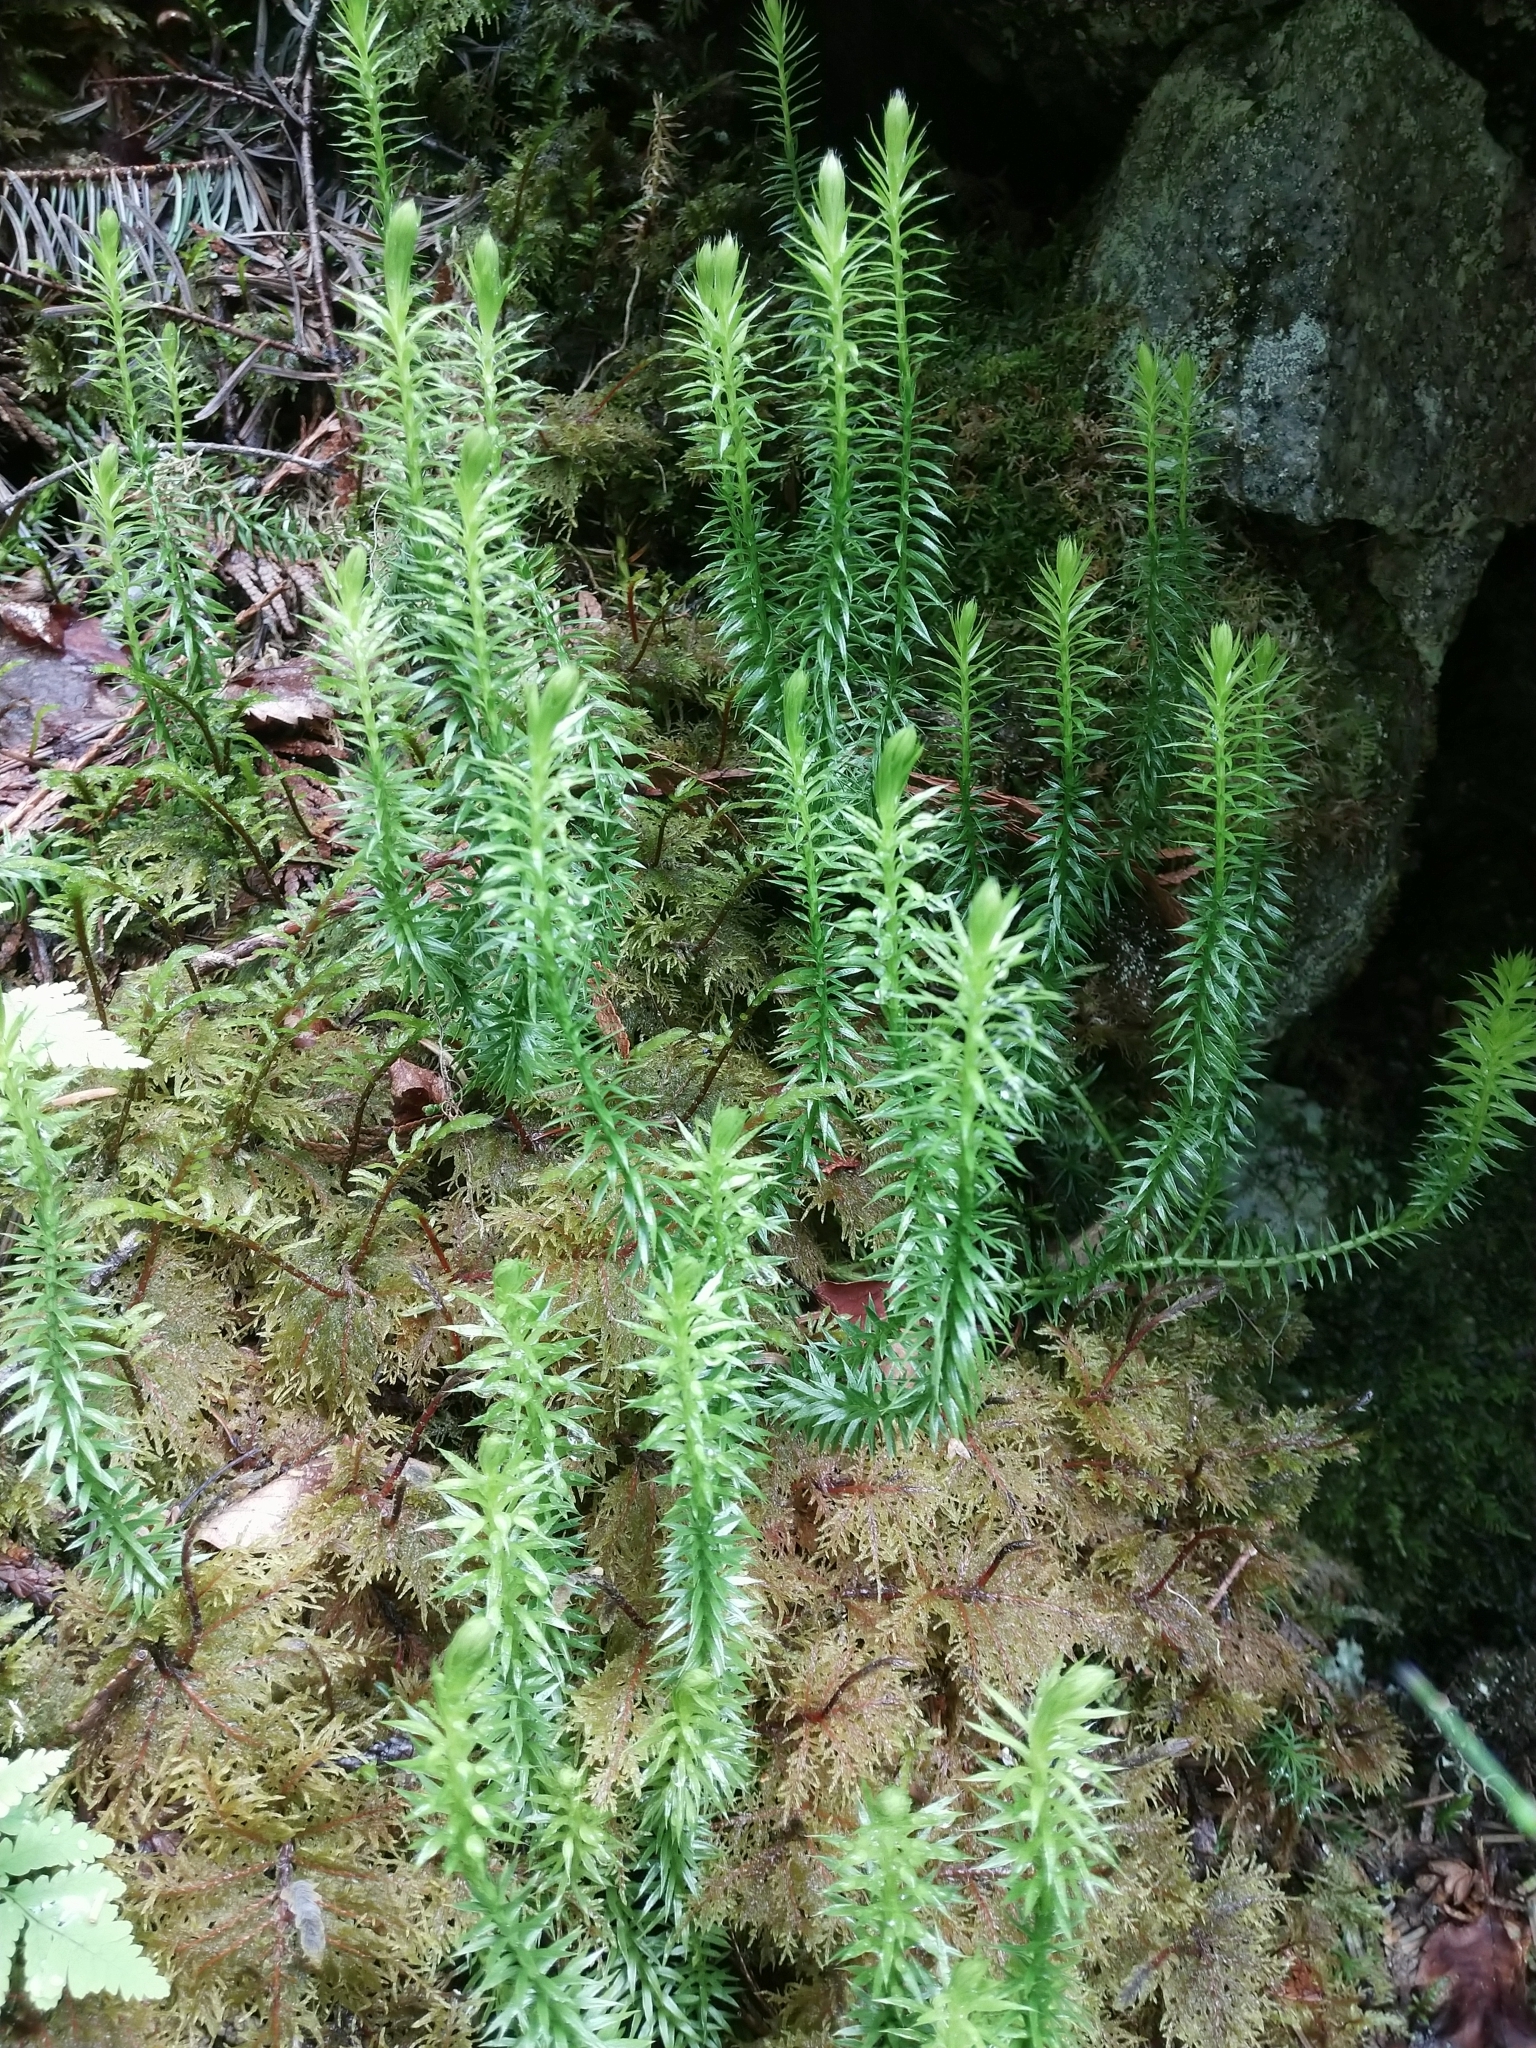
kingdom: Plantae
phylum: Tracheophyta
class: Lycopodiopsida
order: Lycopodiales
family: Lycopodiaceae
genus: Spinulum
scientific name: Spinulum annotinum
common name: Interrupted club-moss
